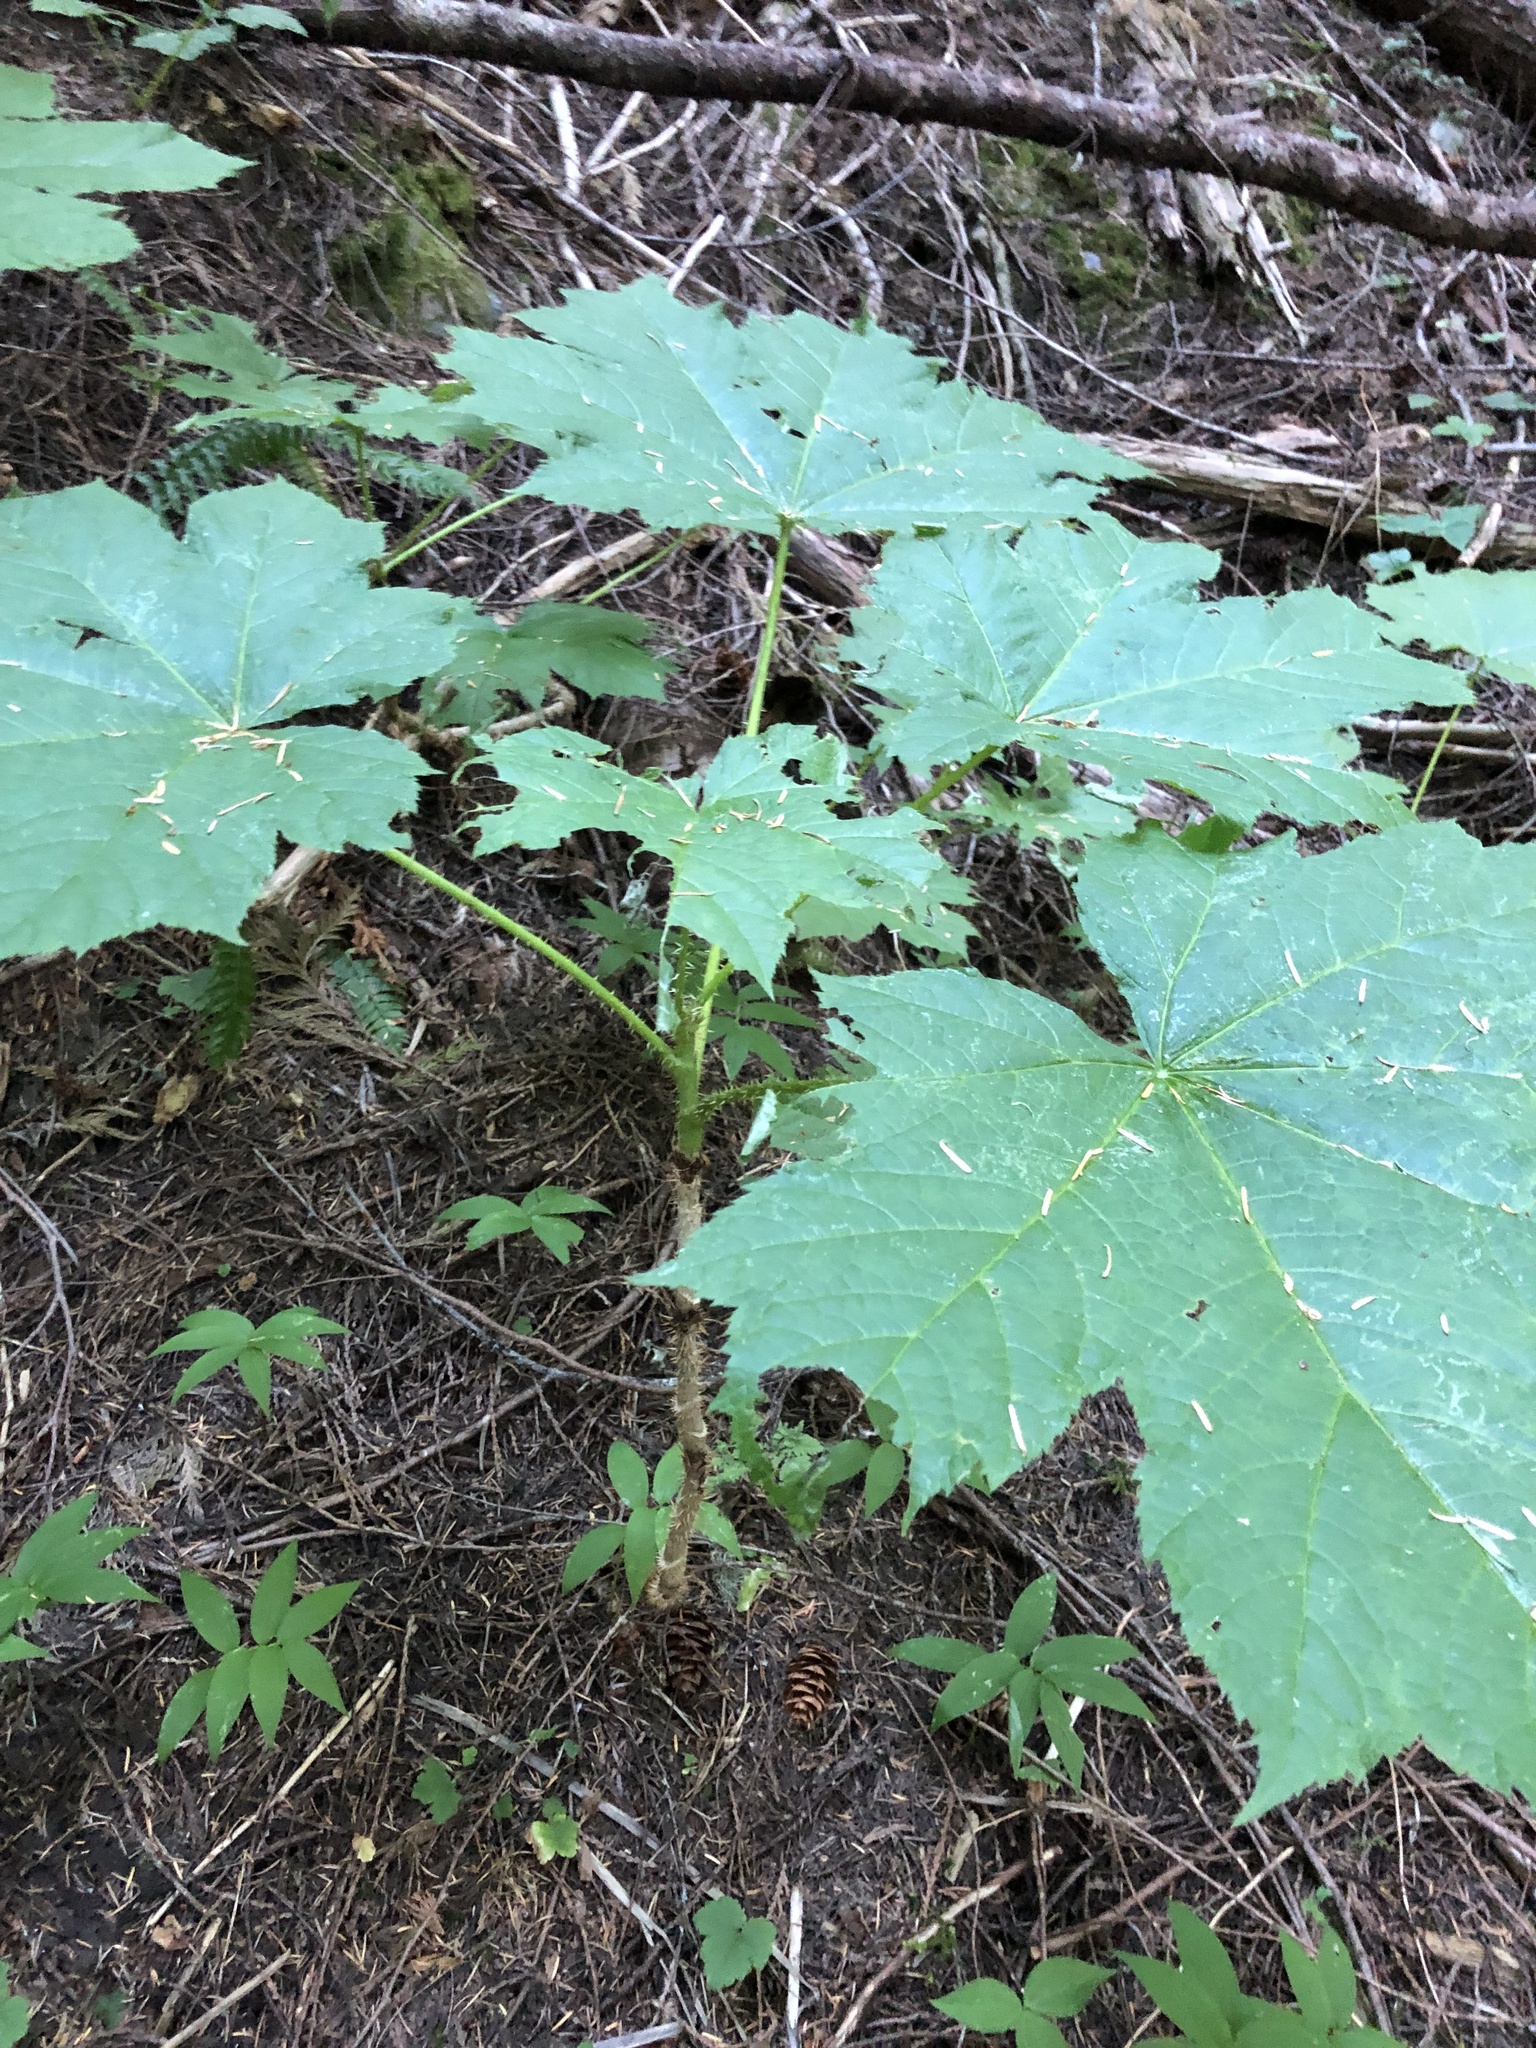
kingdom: Plantae
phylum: Tracheophyta
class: Magnoliopsida
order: Apiales
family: Araliaceae
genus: Oplopanax
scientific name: Oplopanax horridus
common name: Devil's walking-stick
